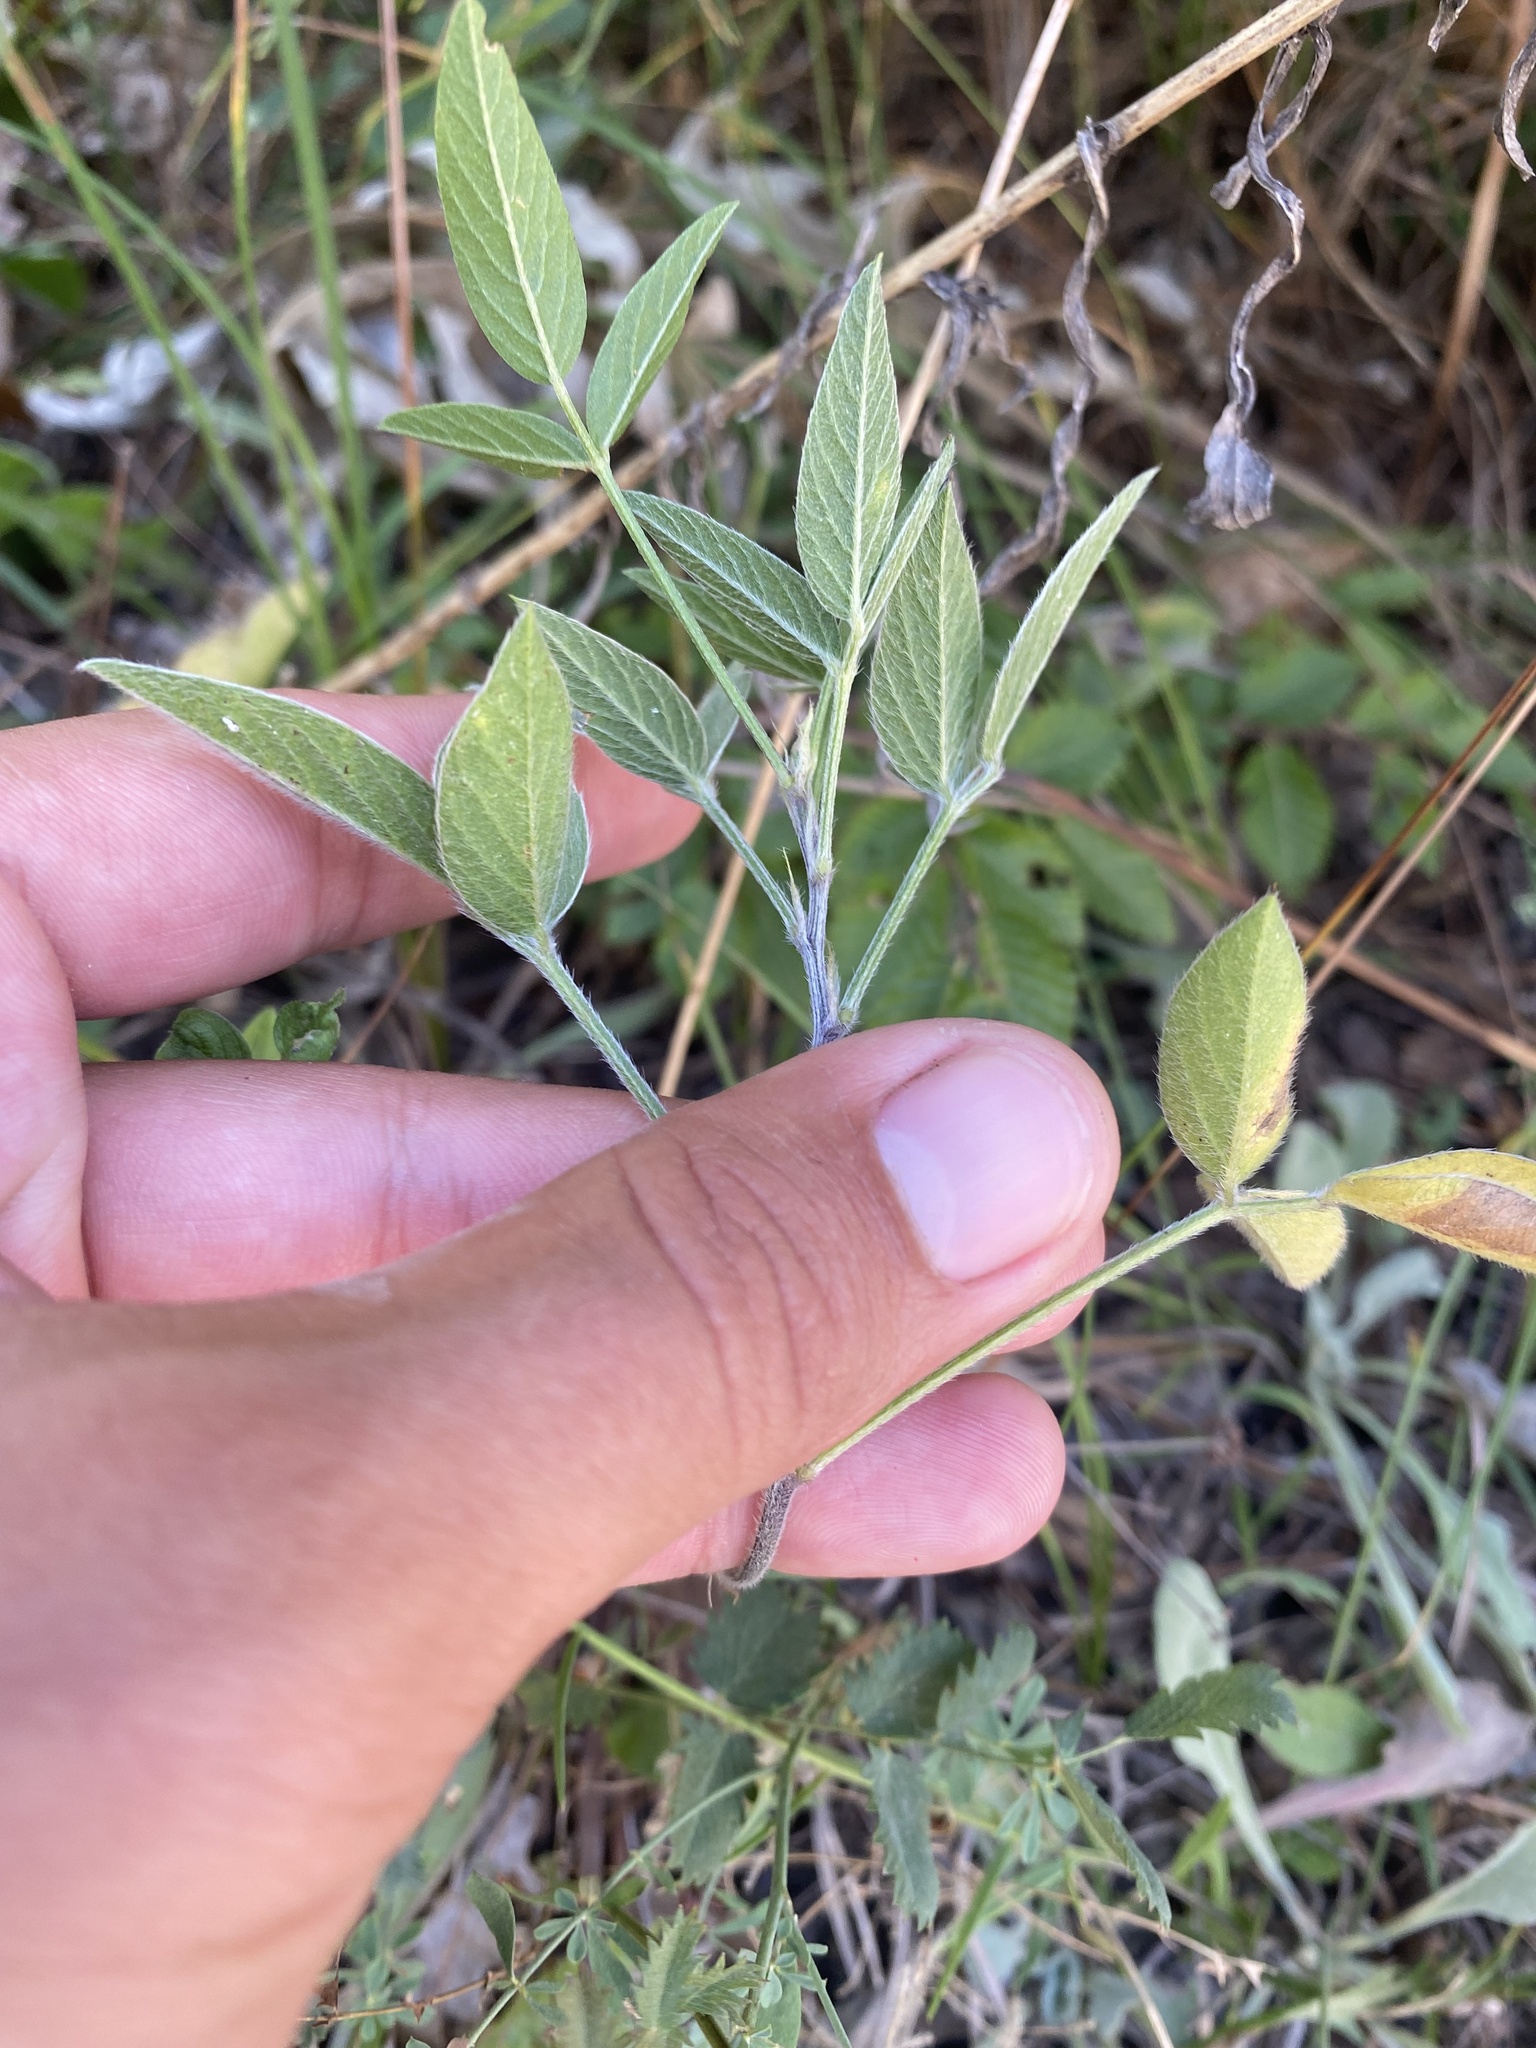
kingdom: Plantae
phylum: Tracheophyta
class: Magnoliopsida
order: Fabales
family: Fabaceae
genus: Bituminaria
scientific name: Bituminaria bituminosa
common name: Arabian pea
